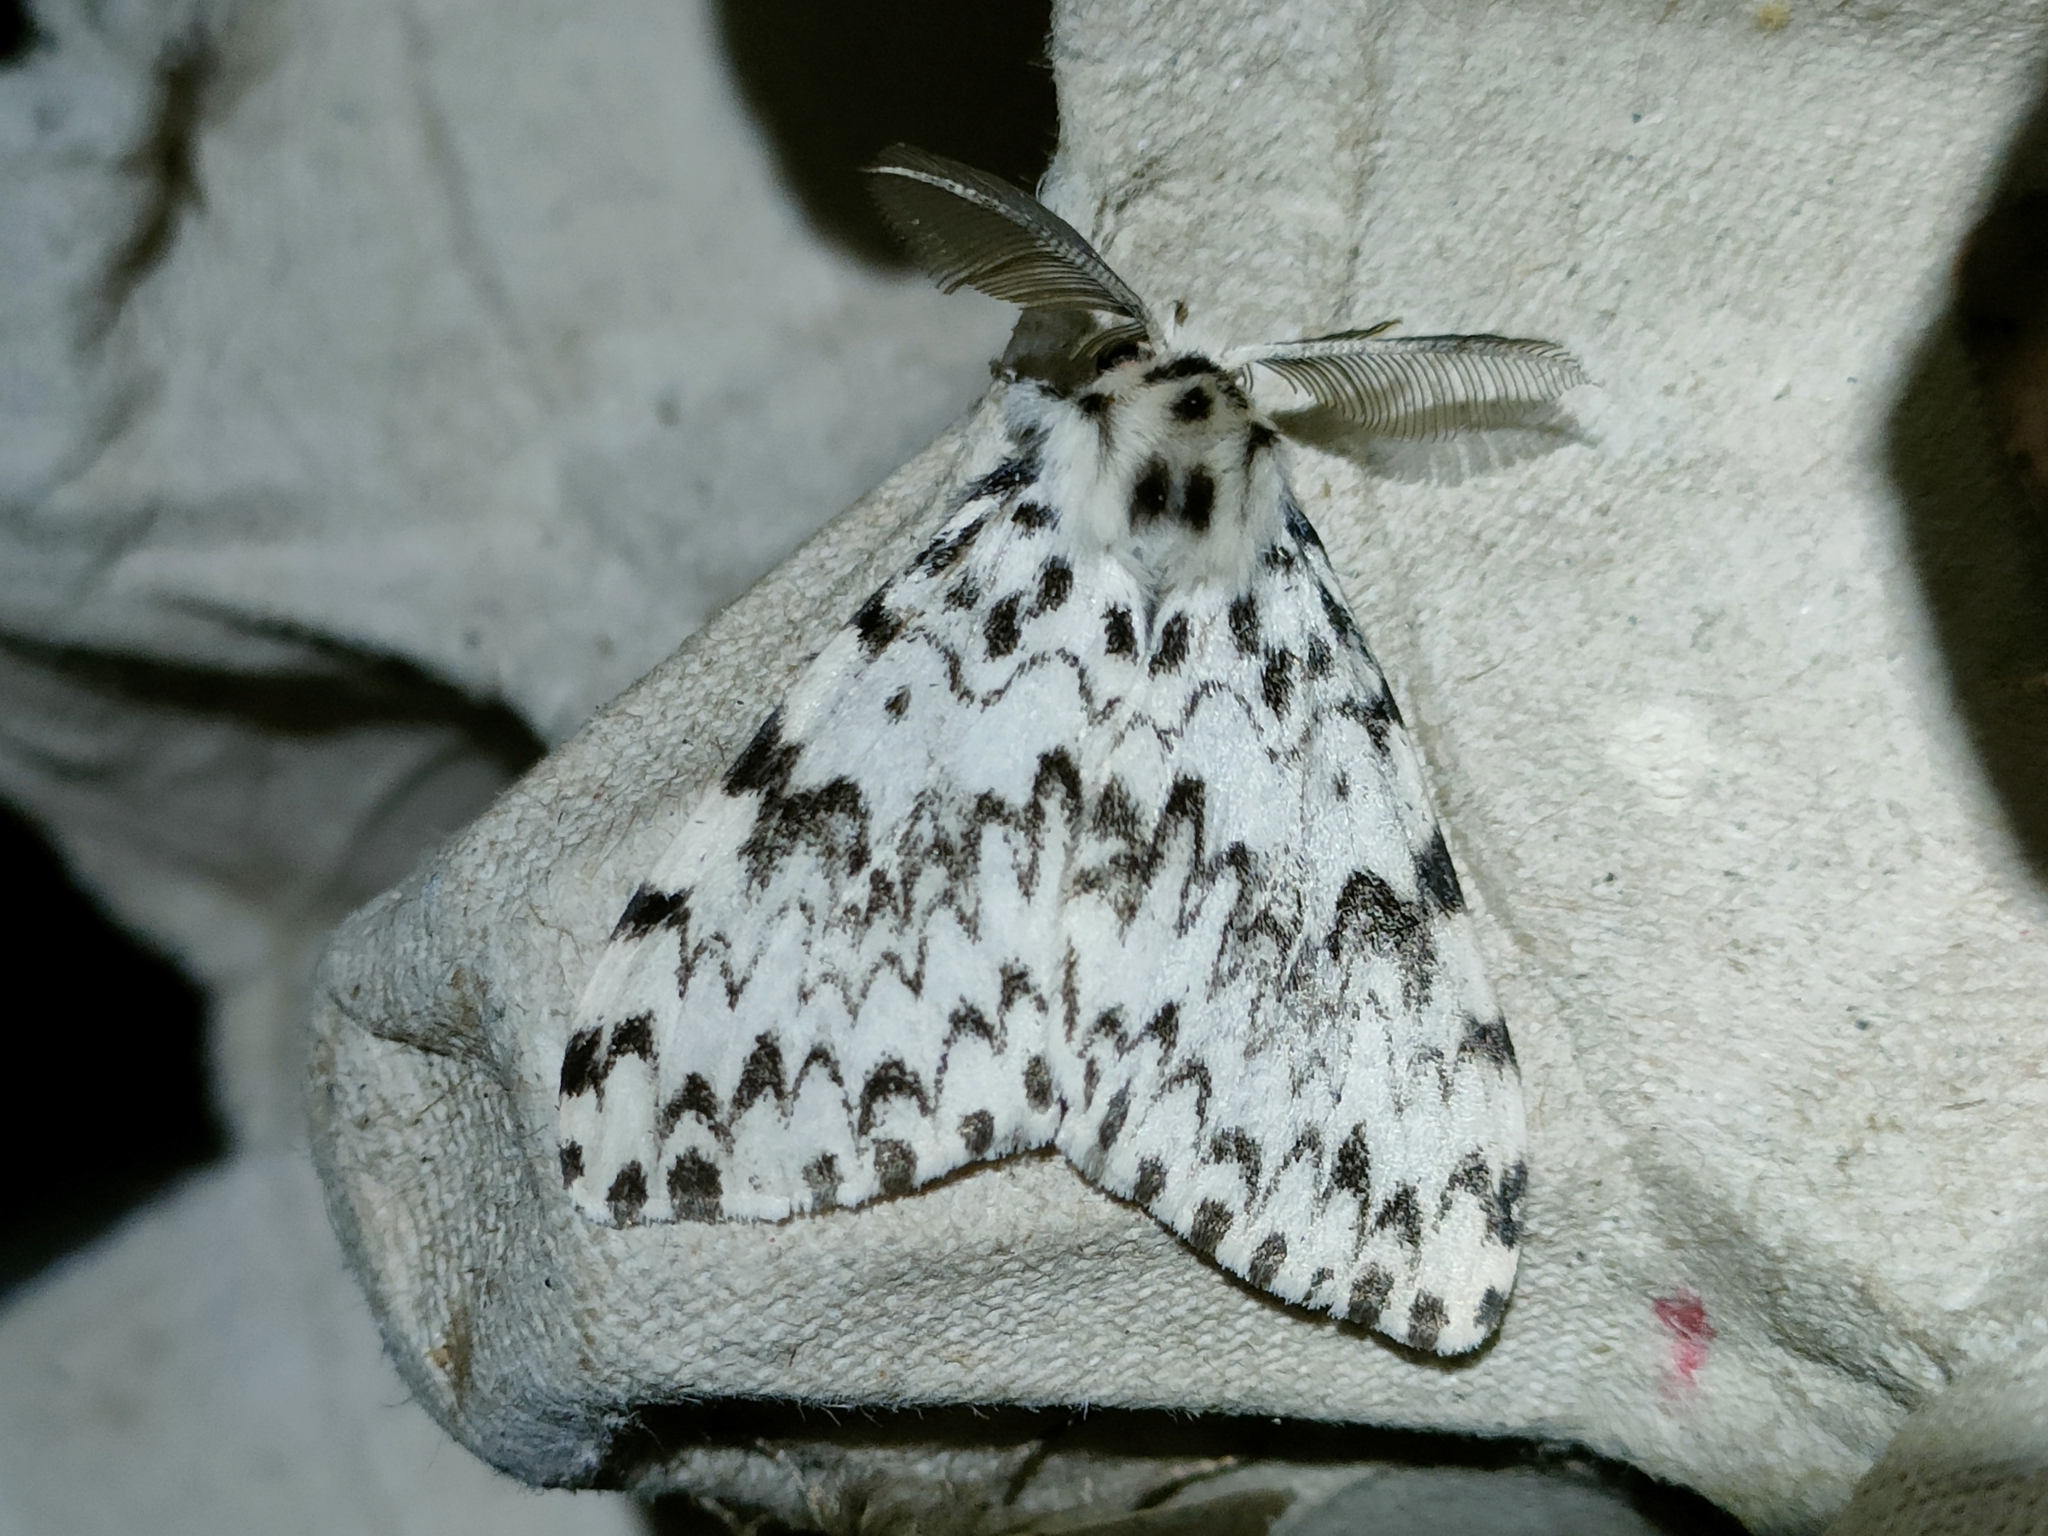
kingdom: Animalia
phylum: Arthropoda
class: Insecta
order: Lepidoptera
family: Erebidae
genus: Lymantria
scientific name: Lymantria monacha
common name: Black arches
